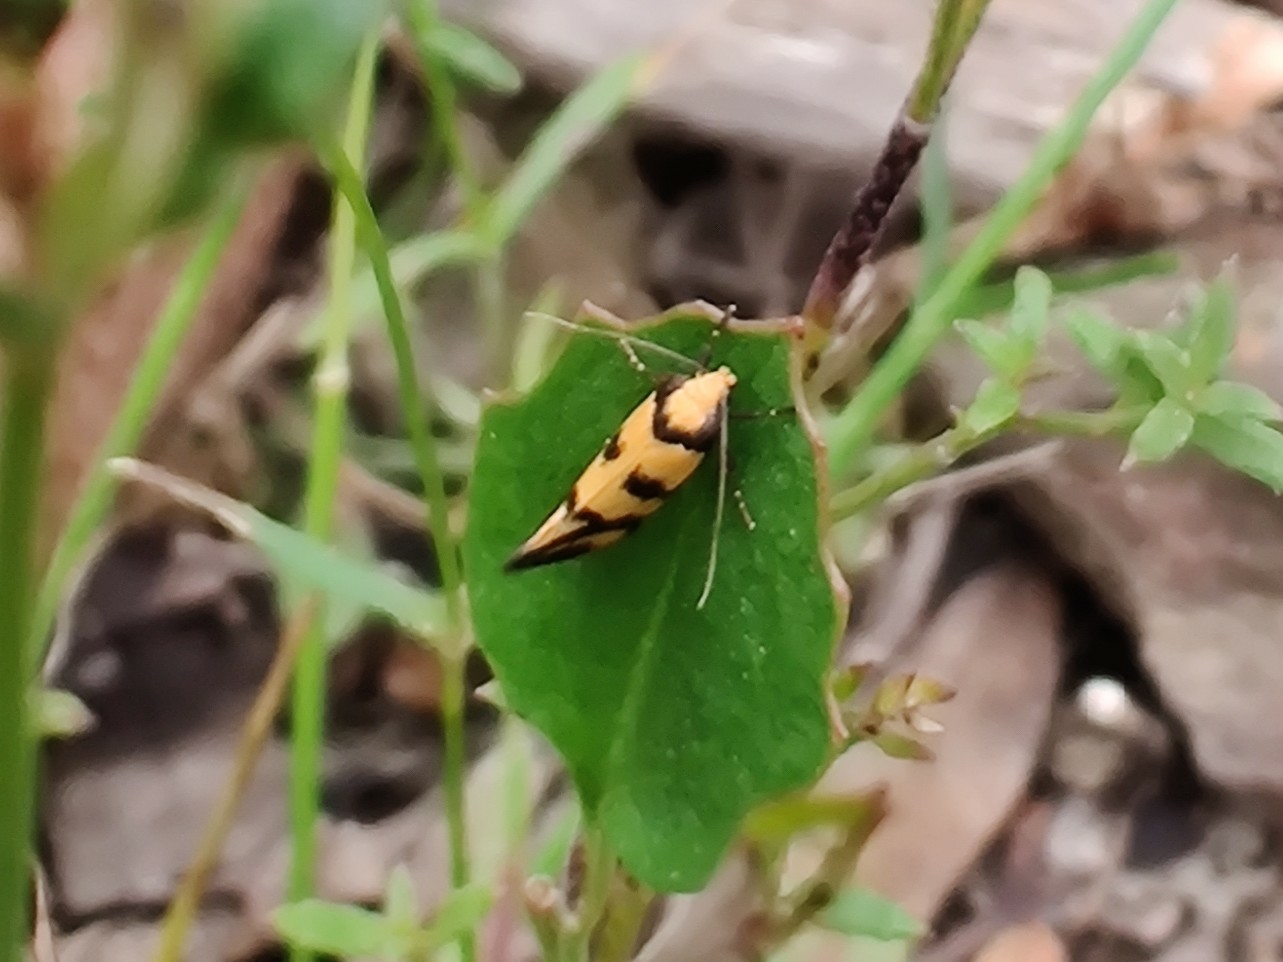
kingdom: Animalia
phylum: Arthropoda
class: Insecta
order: Lepidoptera
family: Oecophoridae
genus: Olbonoma
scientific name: Olbonoma triptycha
